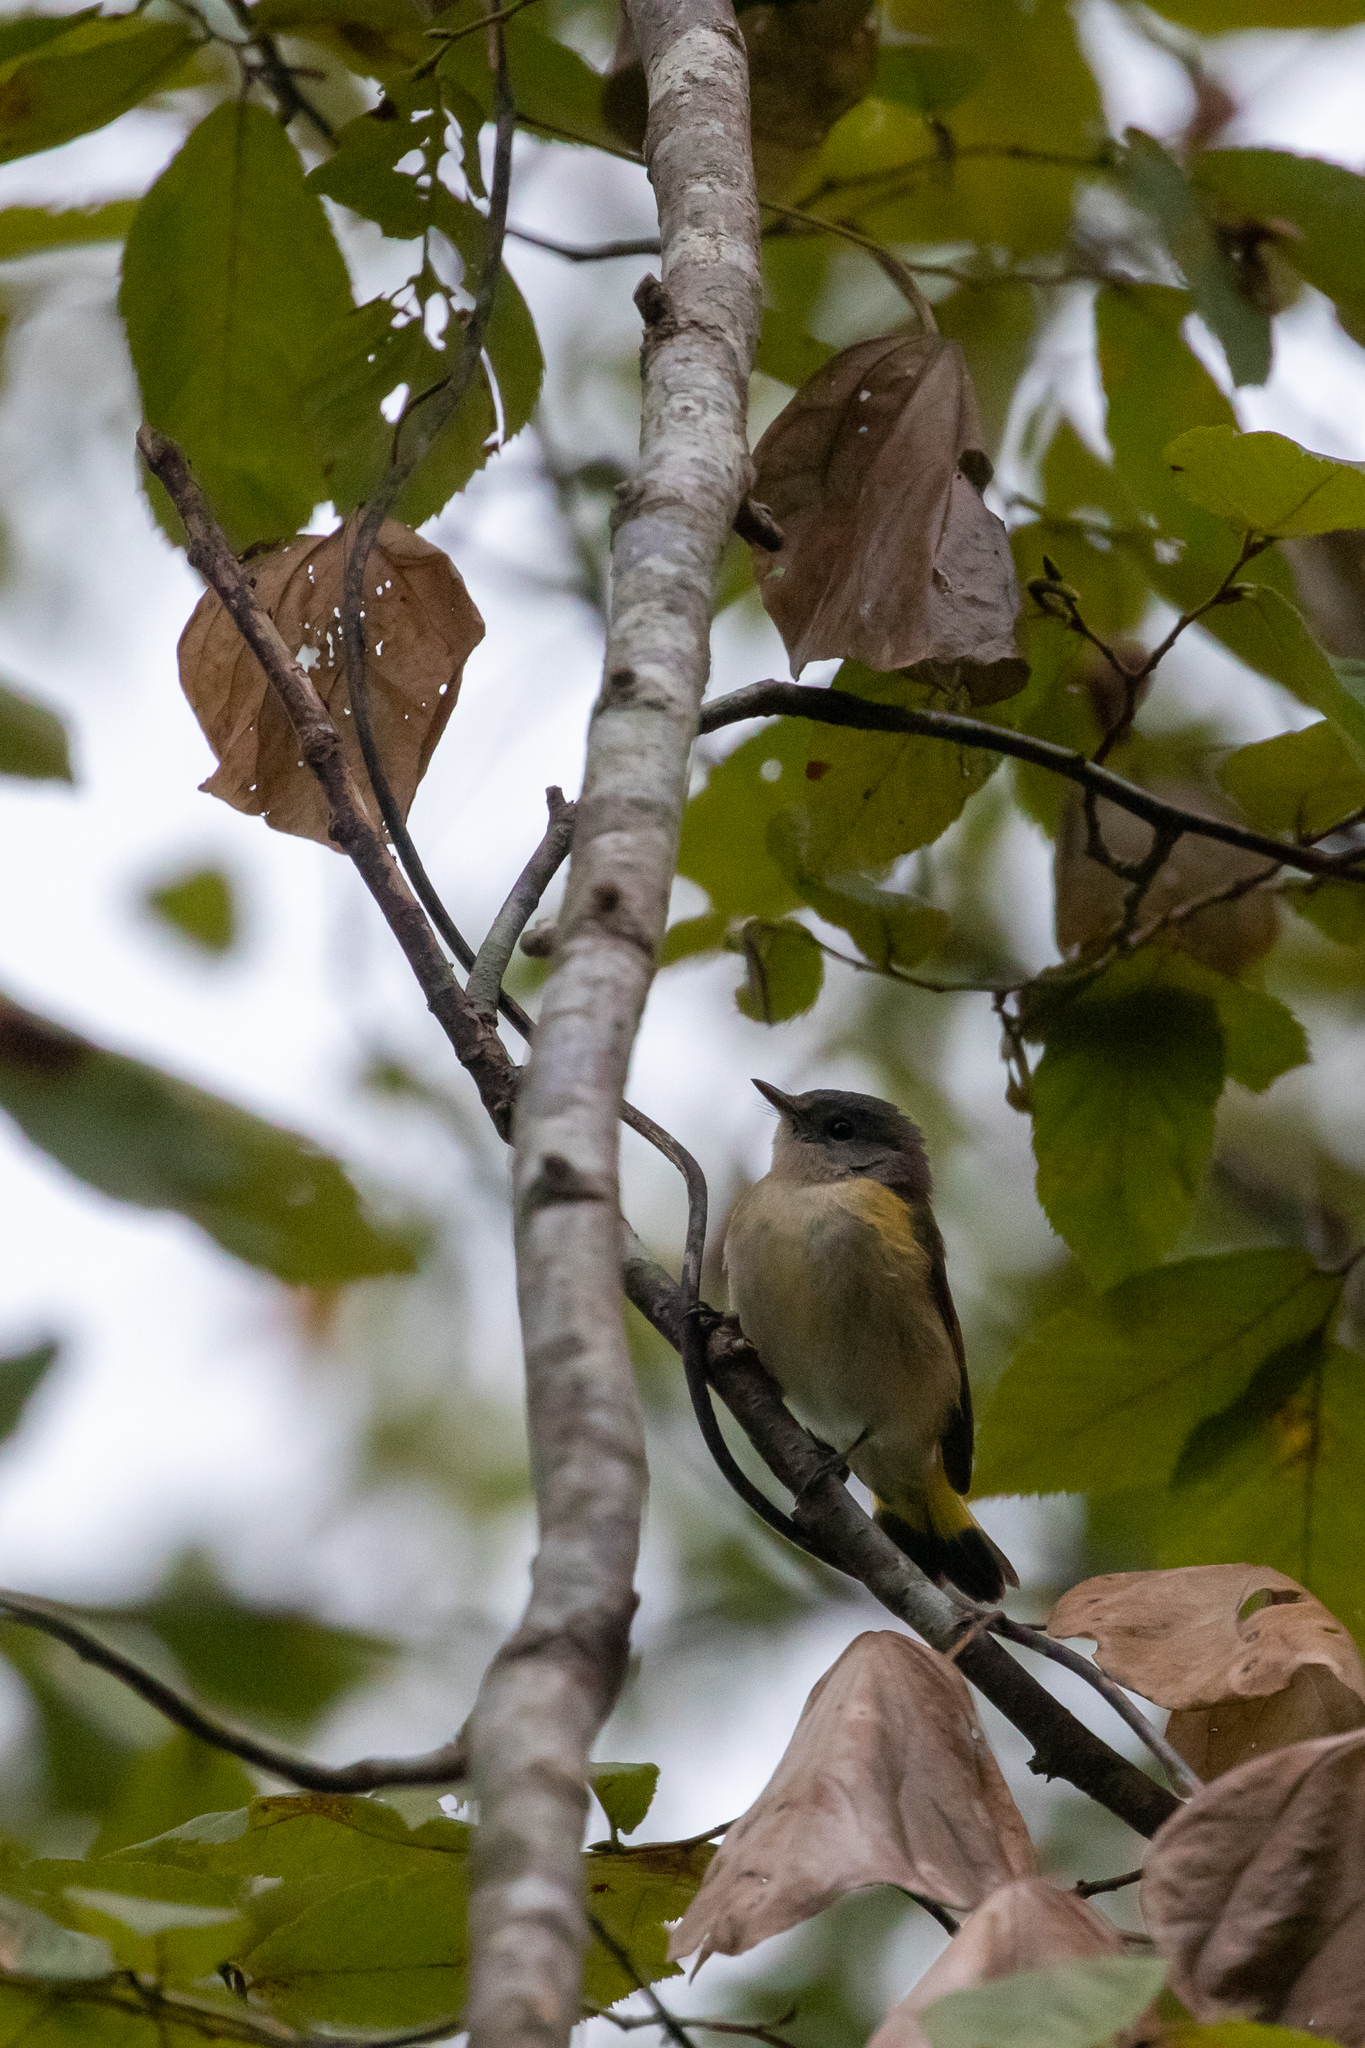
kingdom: Animalia
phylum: Chordata
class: Aves
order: Passeriformes
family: Parulidae
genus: Setophaga
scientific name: Setophaga ruticilla
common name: American redstart
